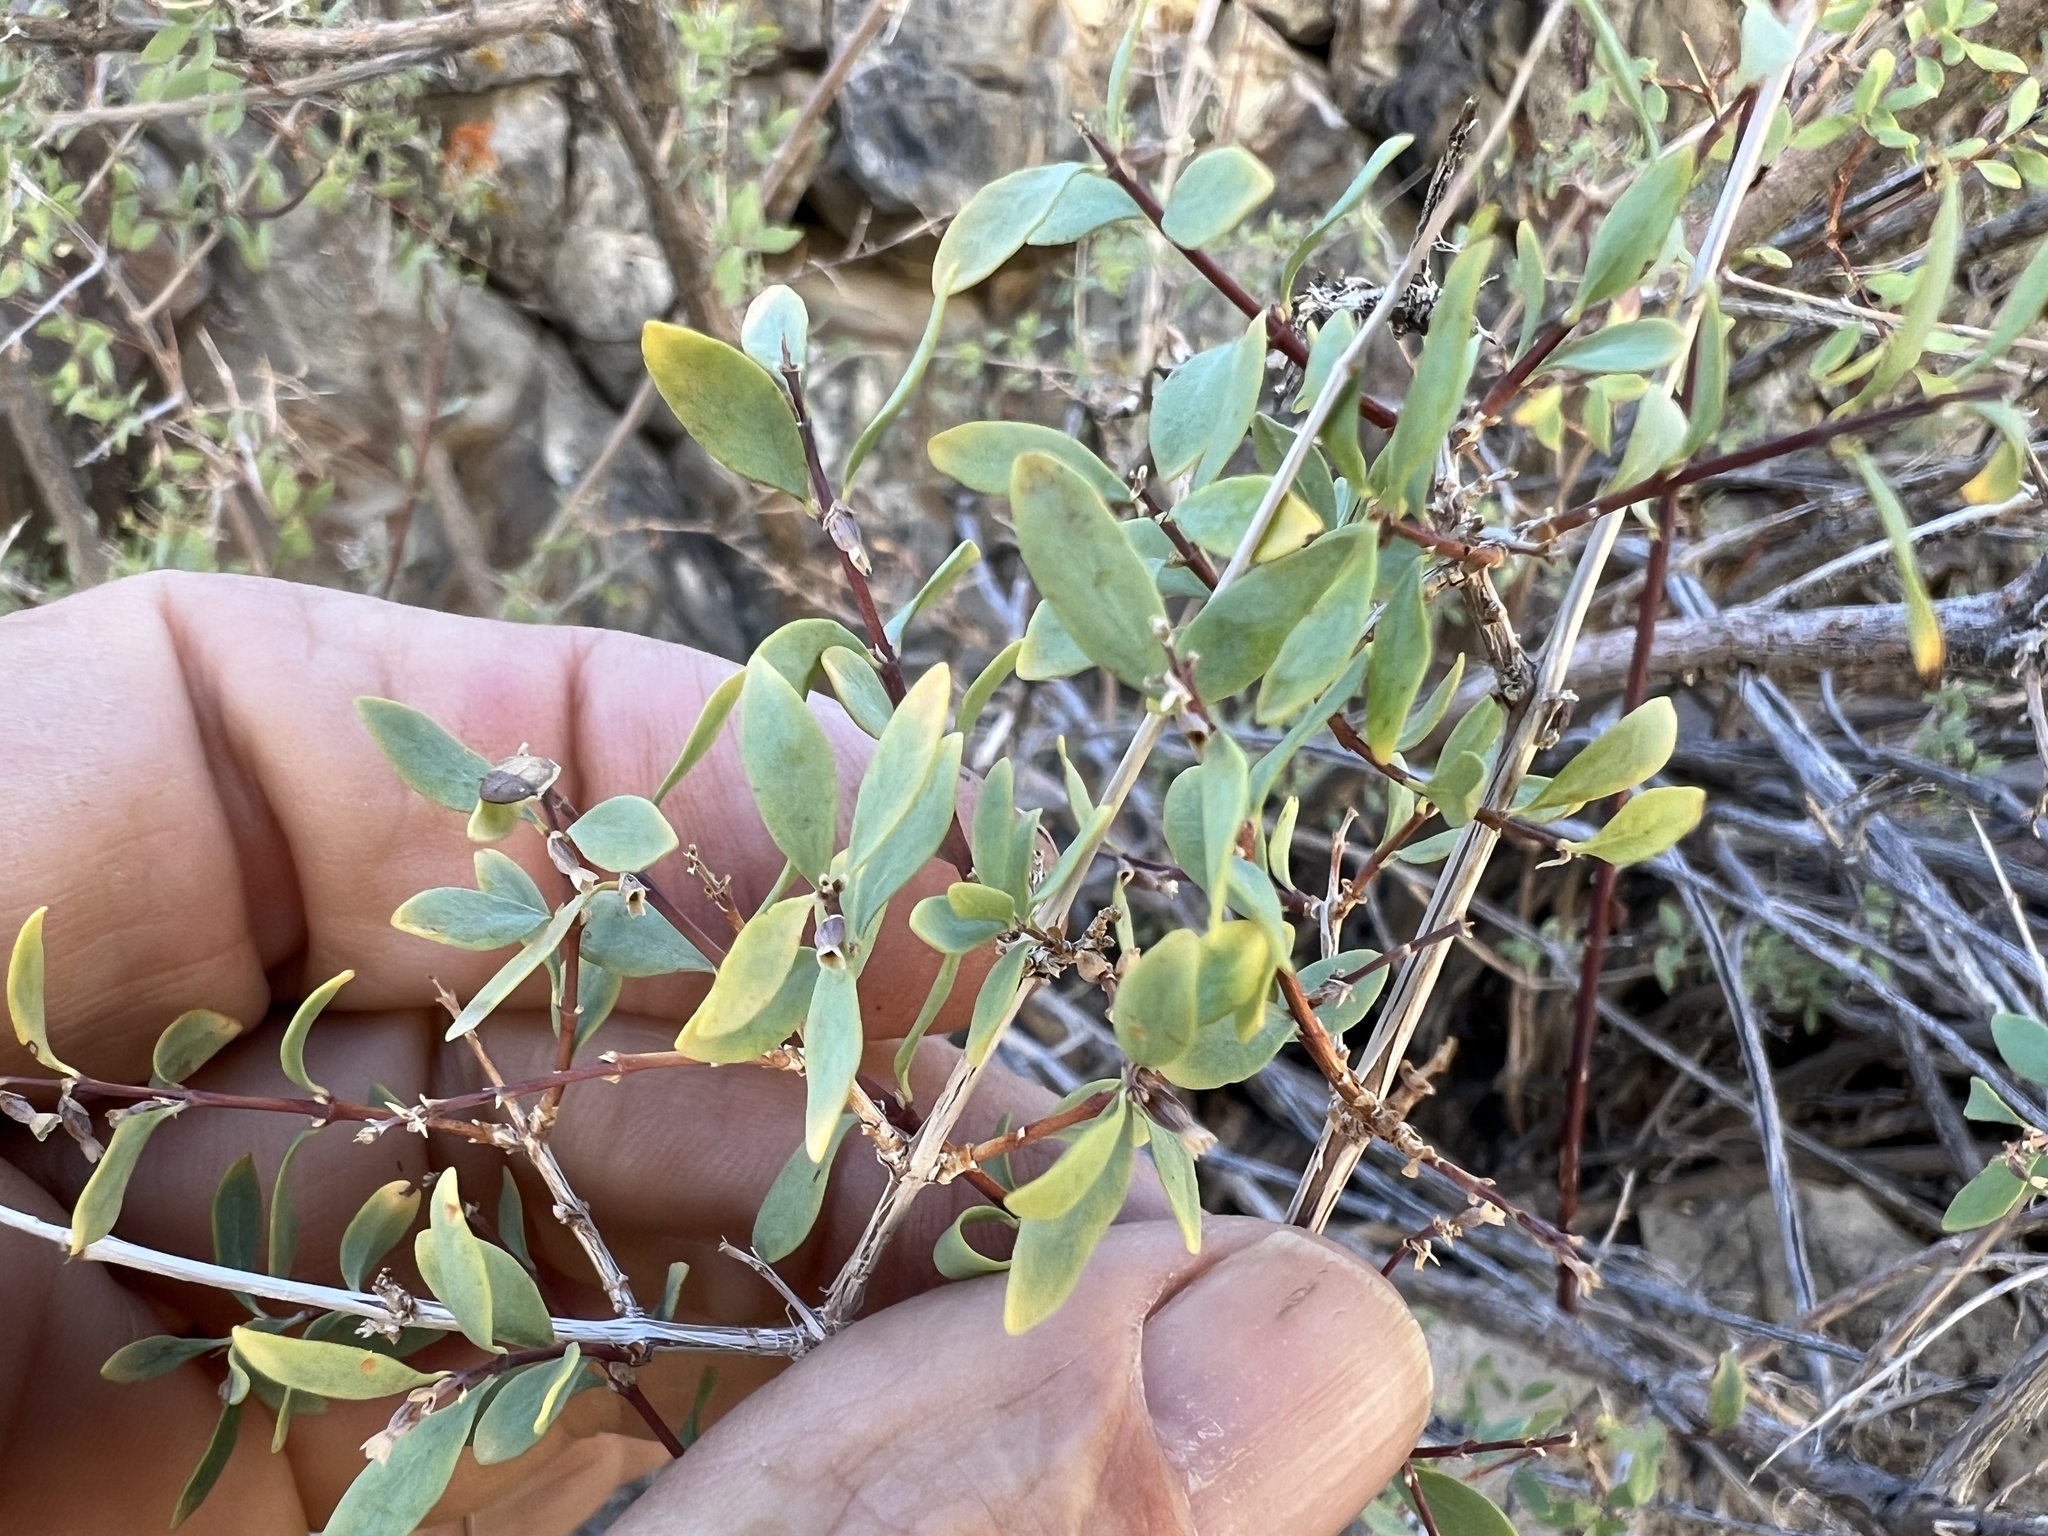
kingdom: Plantae
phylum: Tracheophyta
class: Magnoliopsida
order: Dipsacales
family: Caprifoliaceae
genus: Symphoricarpos
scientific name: Symphoricarpos longiflorus
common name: Fragrant snowberry
